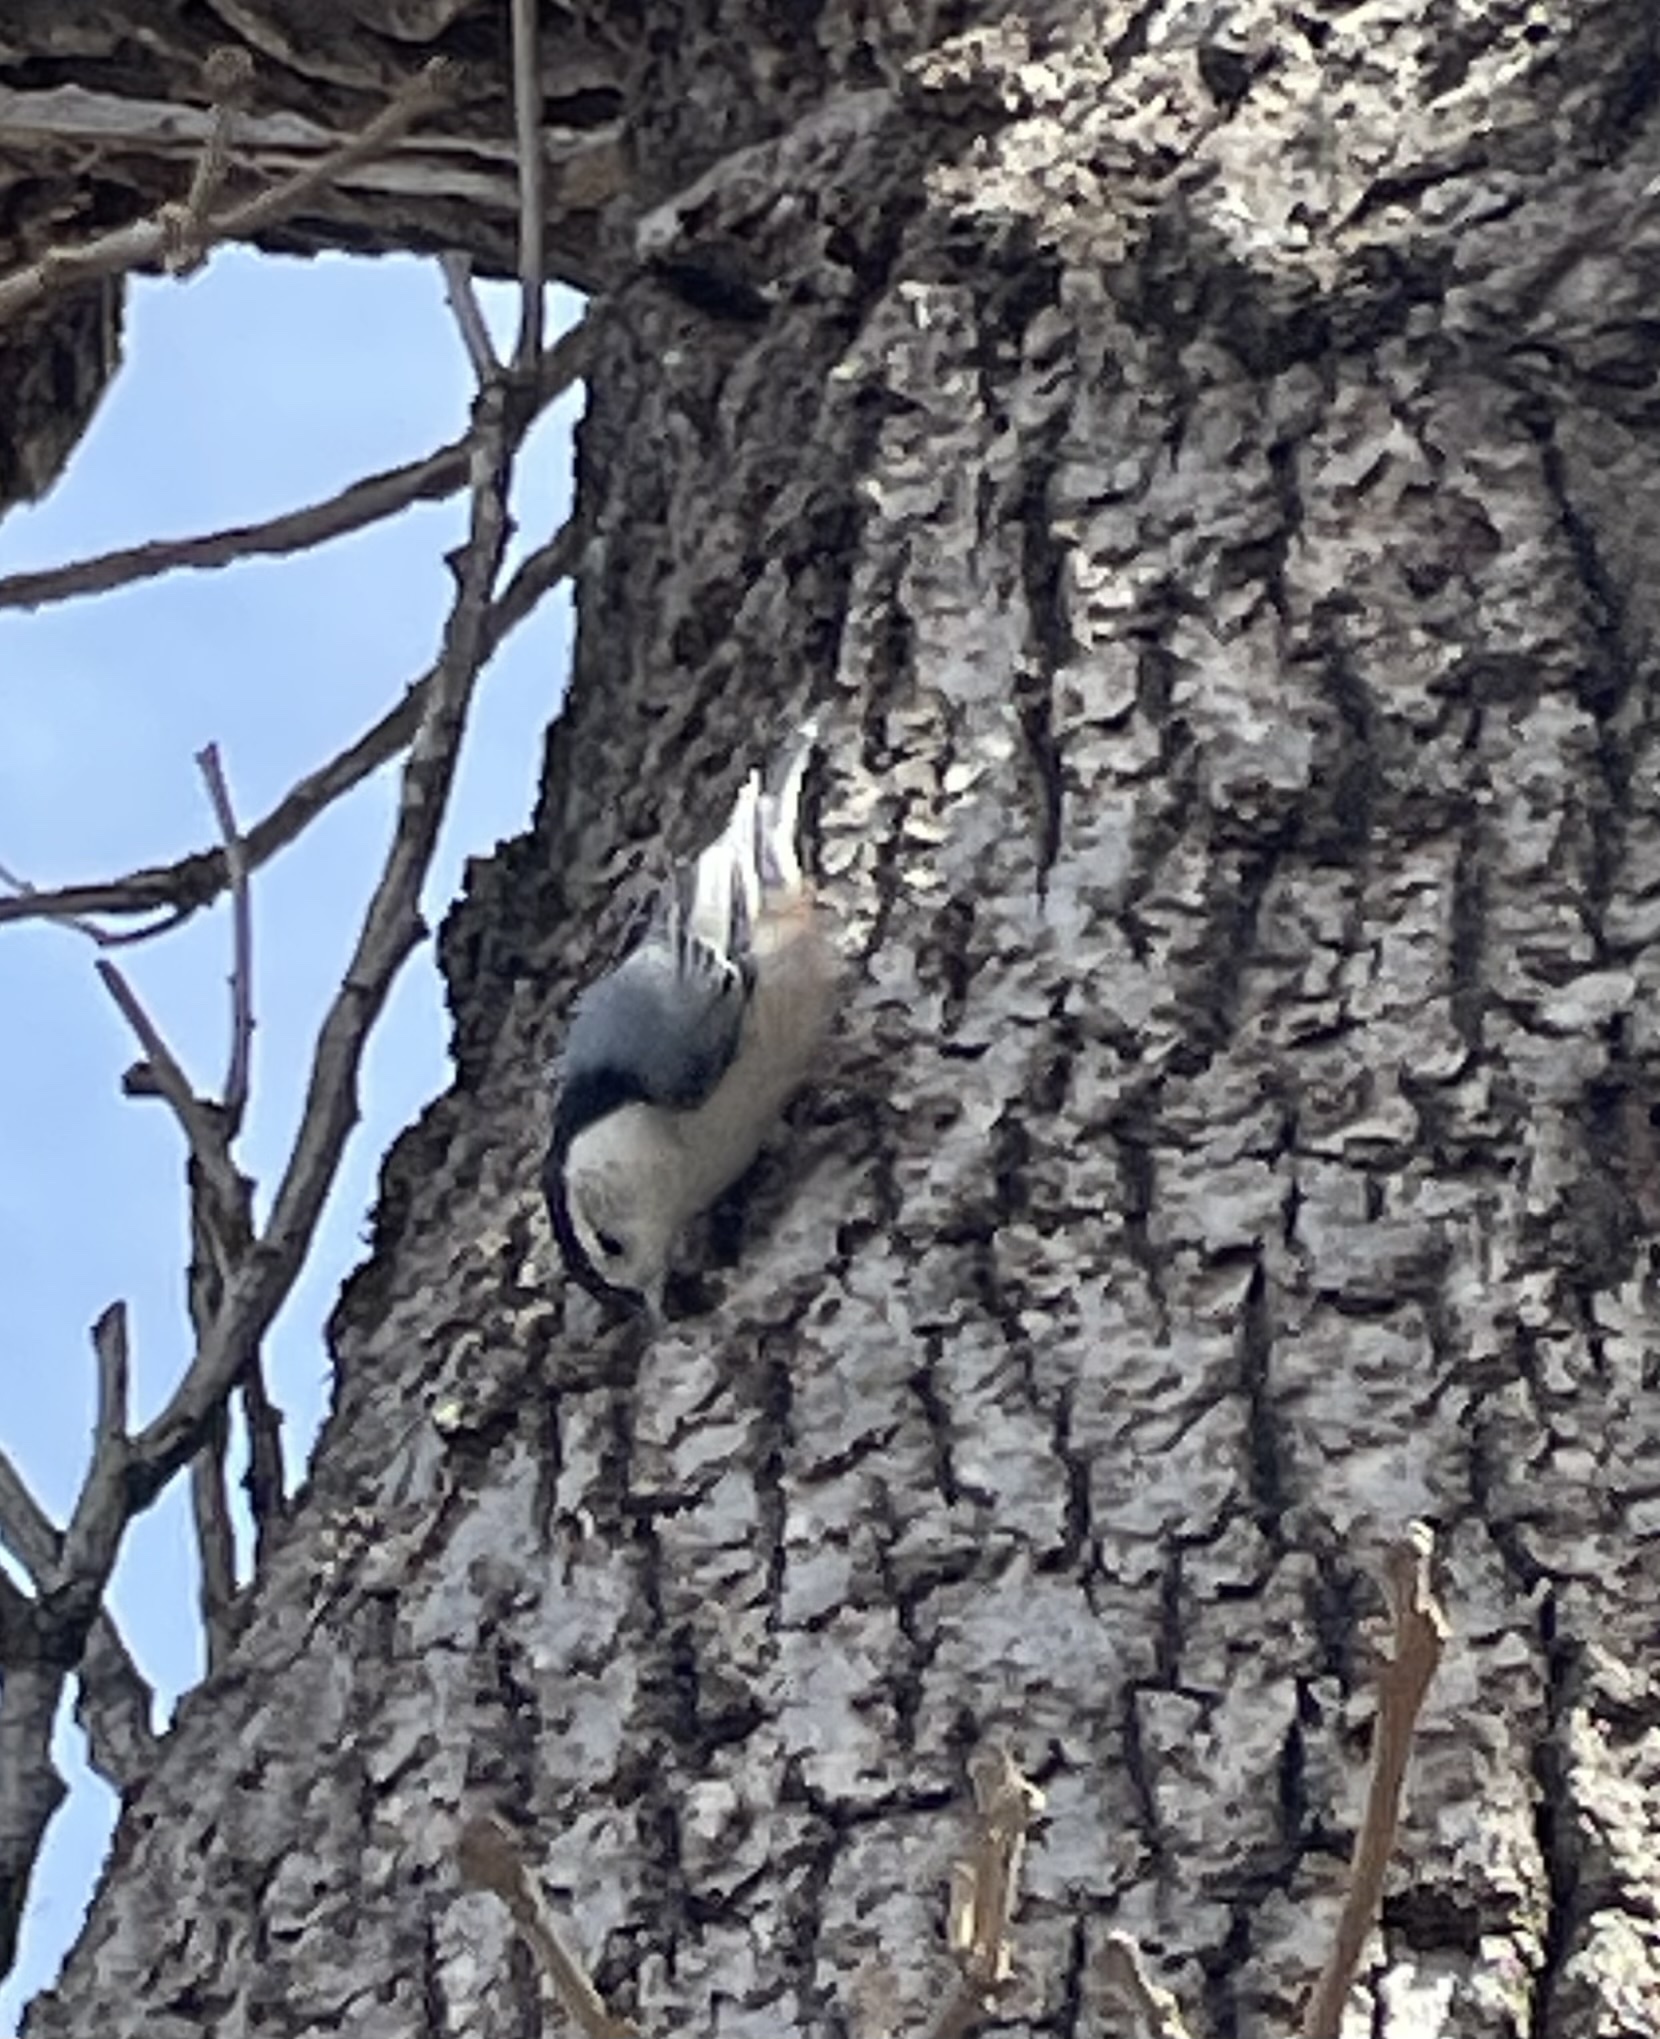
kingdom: Animalia
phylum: Chordata
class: Aves
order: Passeriformes
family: Sittidae
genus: Sitta
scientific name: Sitta carolinensis
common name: White-breasted nuthatch
